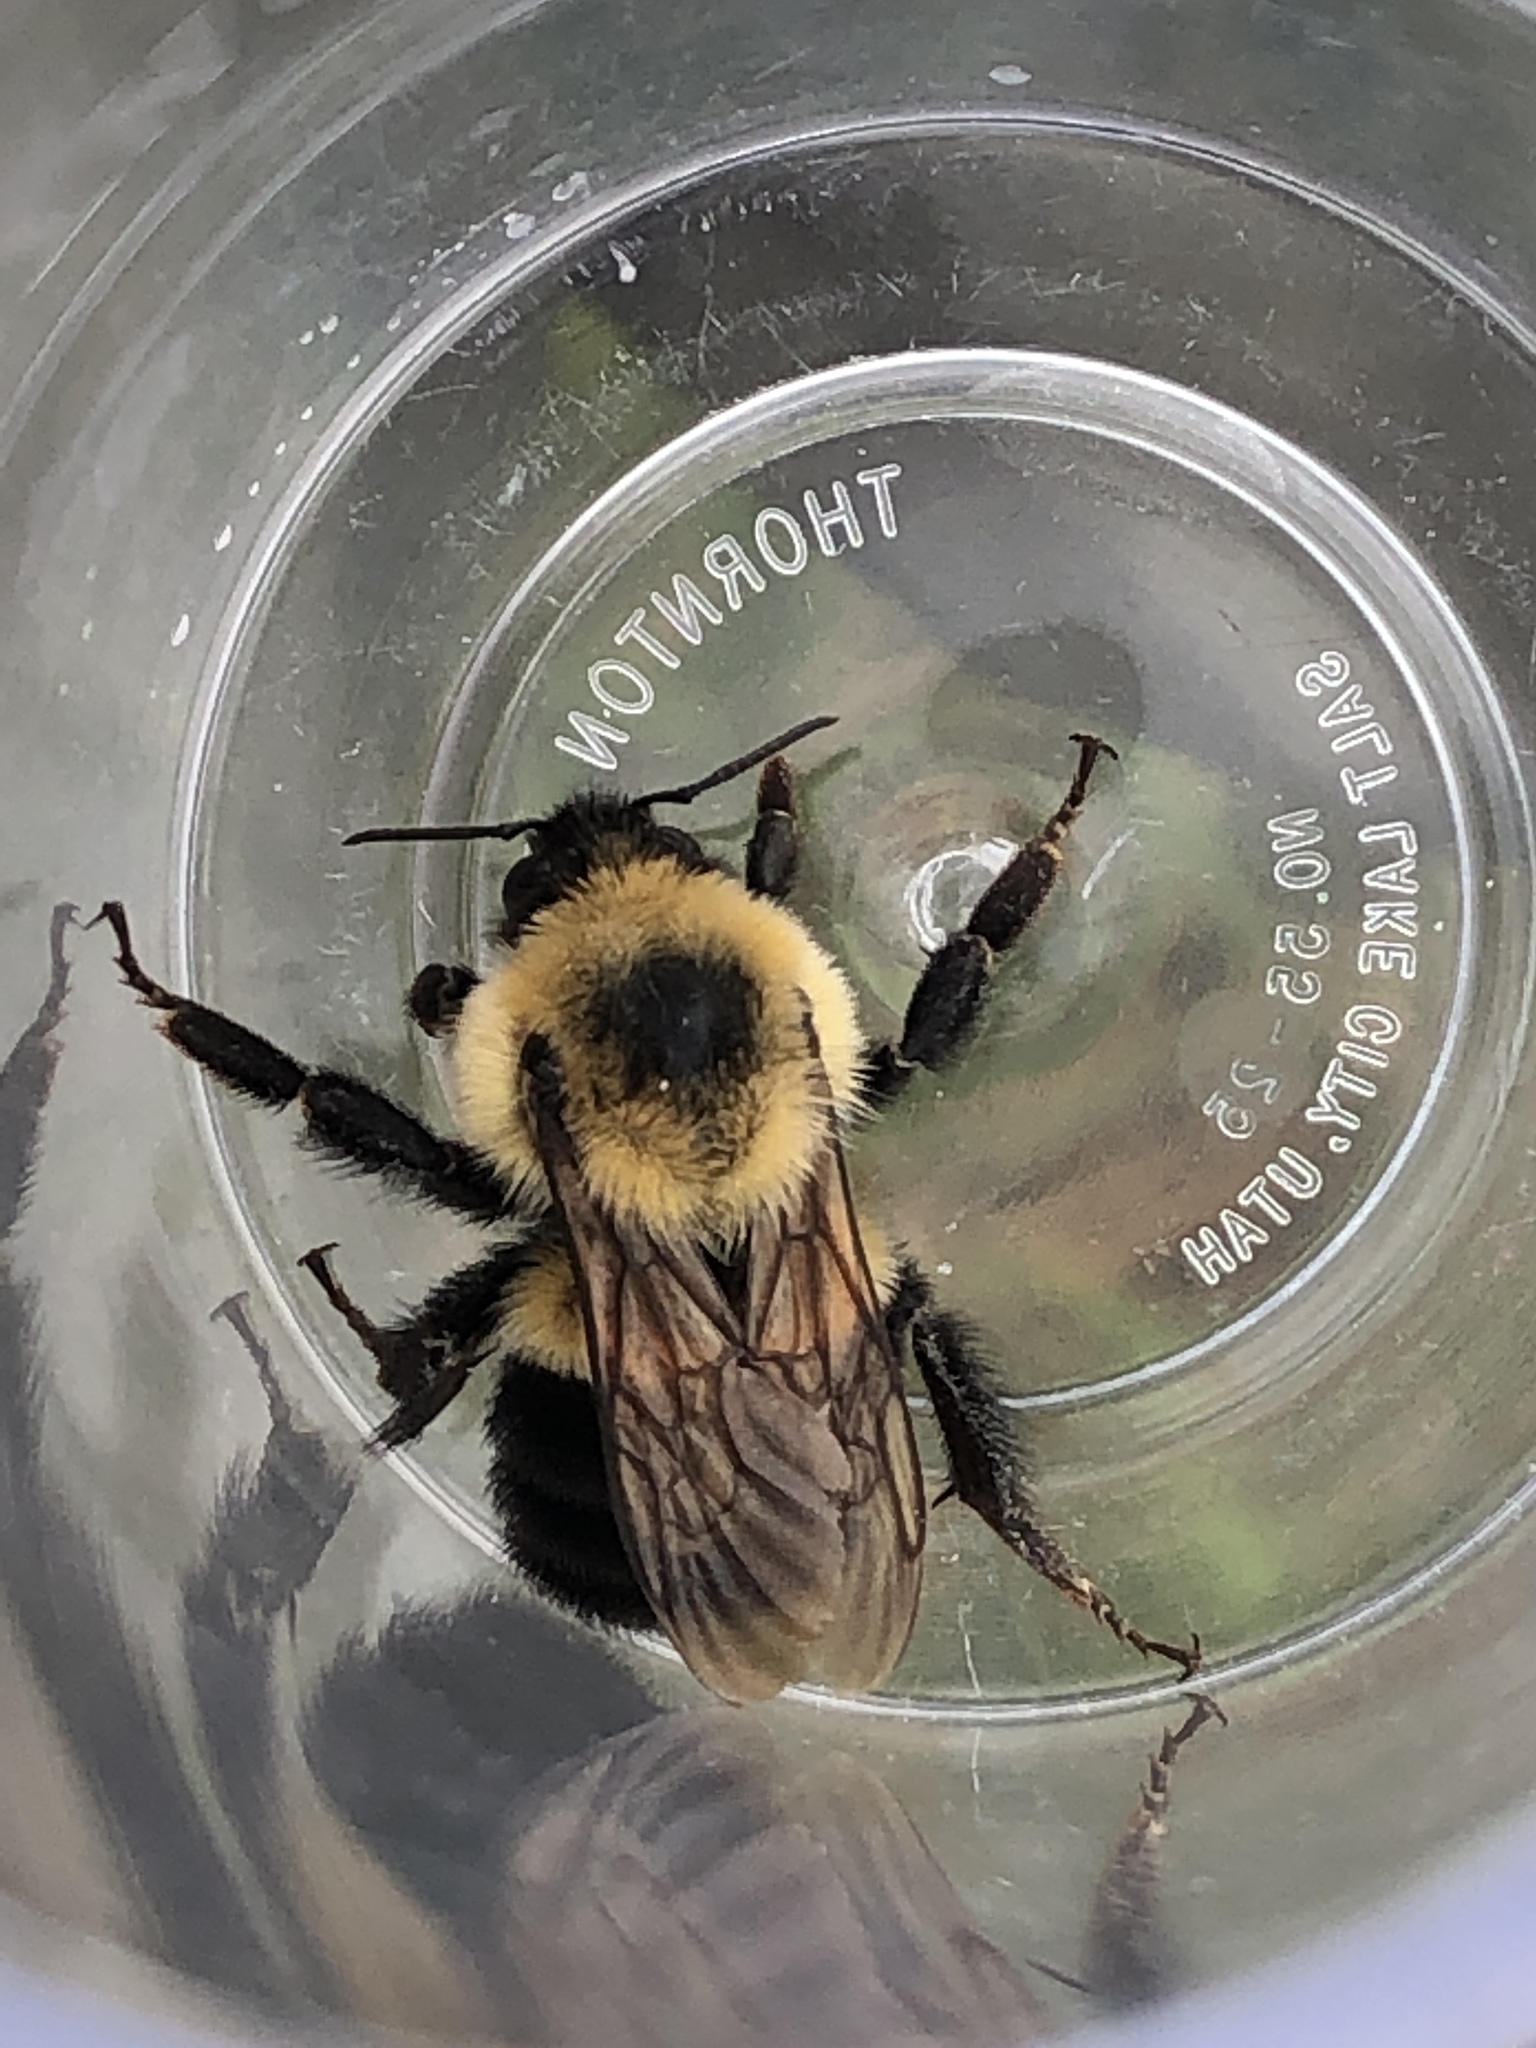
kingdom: Animalia
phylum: Arthropoda
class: Insecta
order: Hymenoptera
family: Apidae
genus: Bombus
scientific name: Bombus griseocollis
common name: Brown-belted bumble bee
